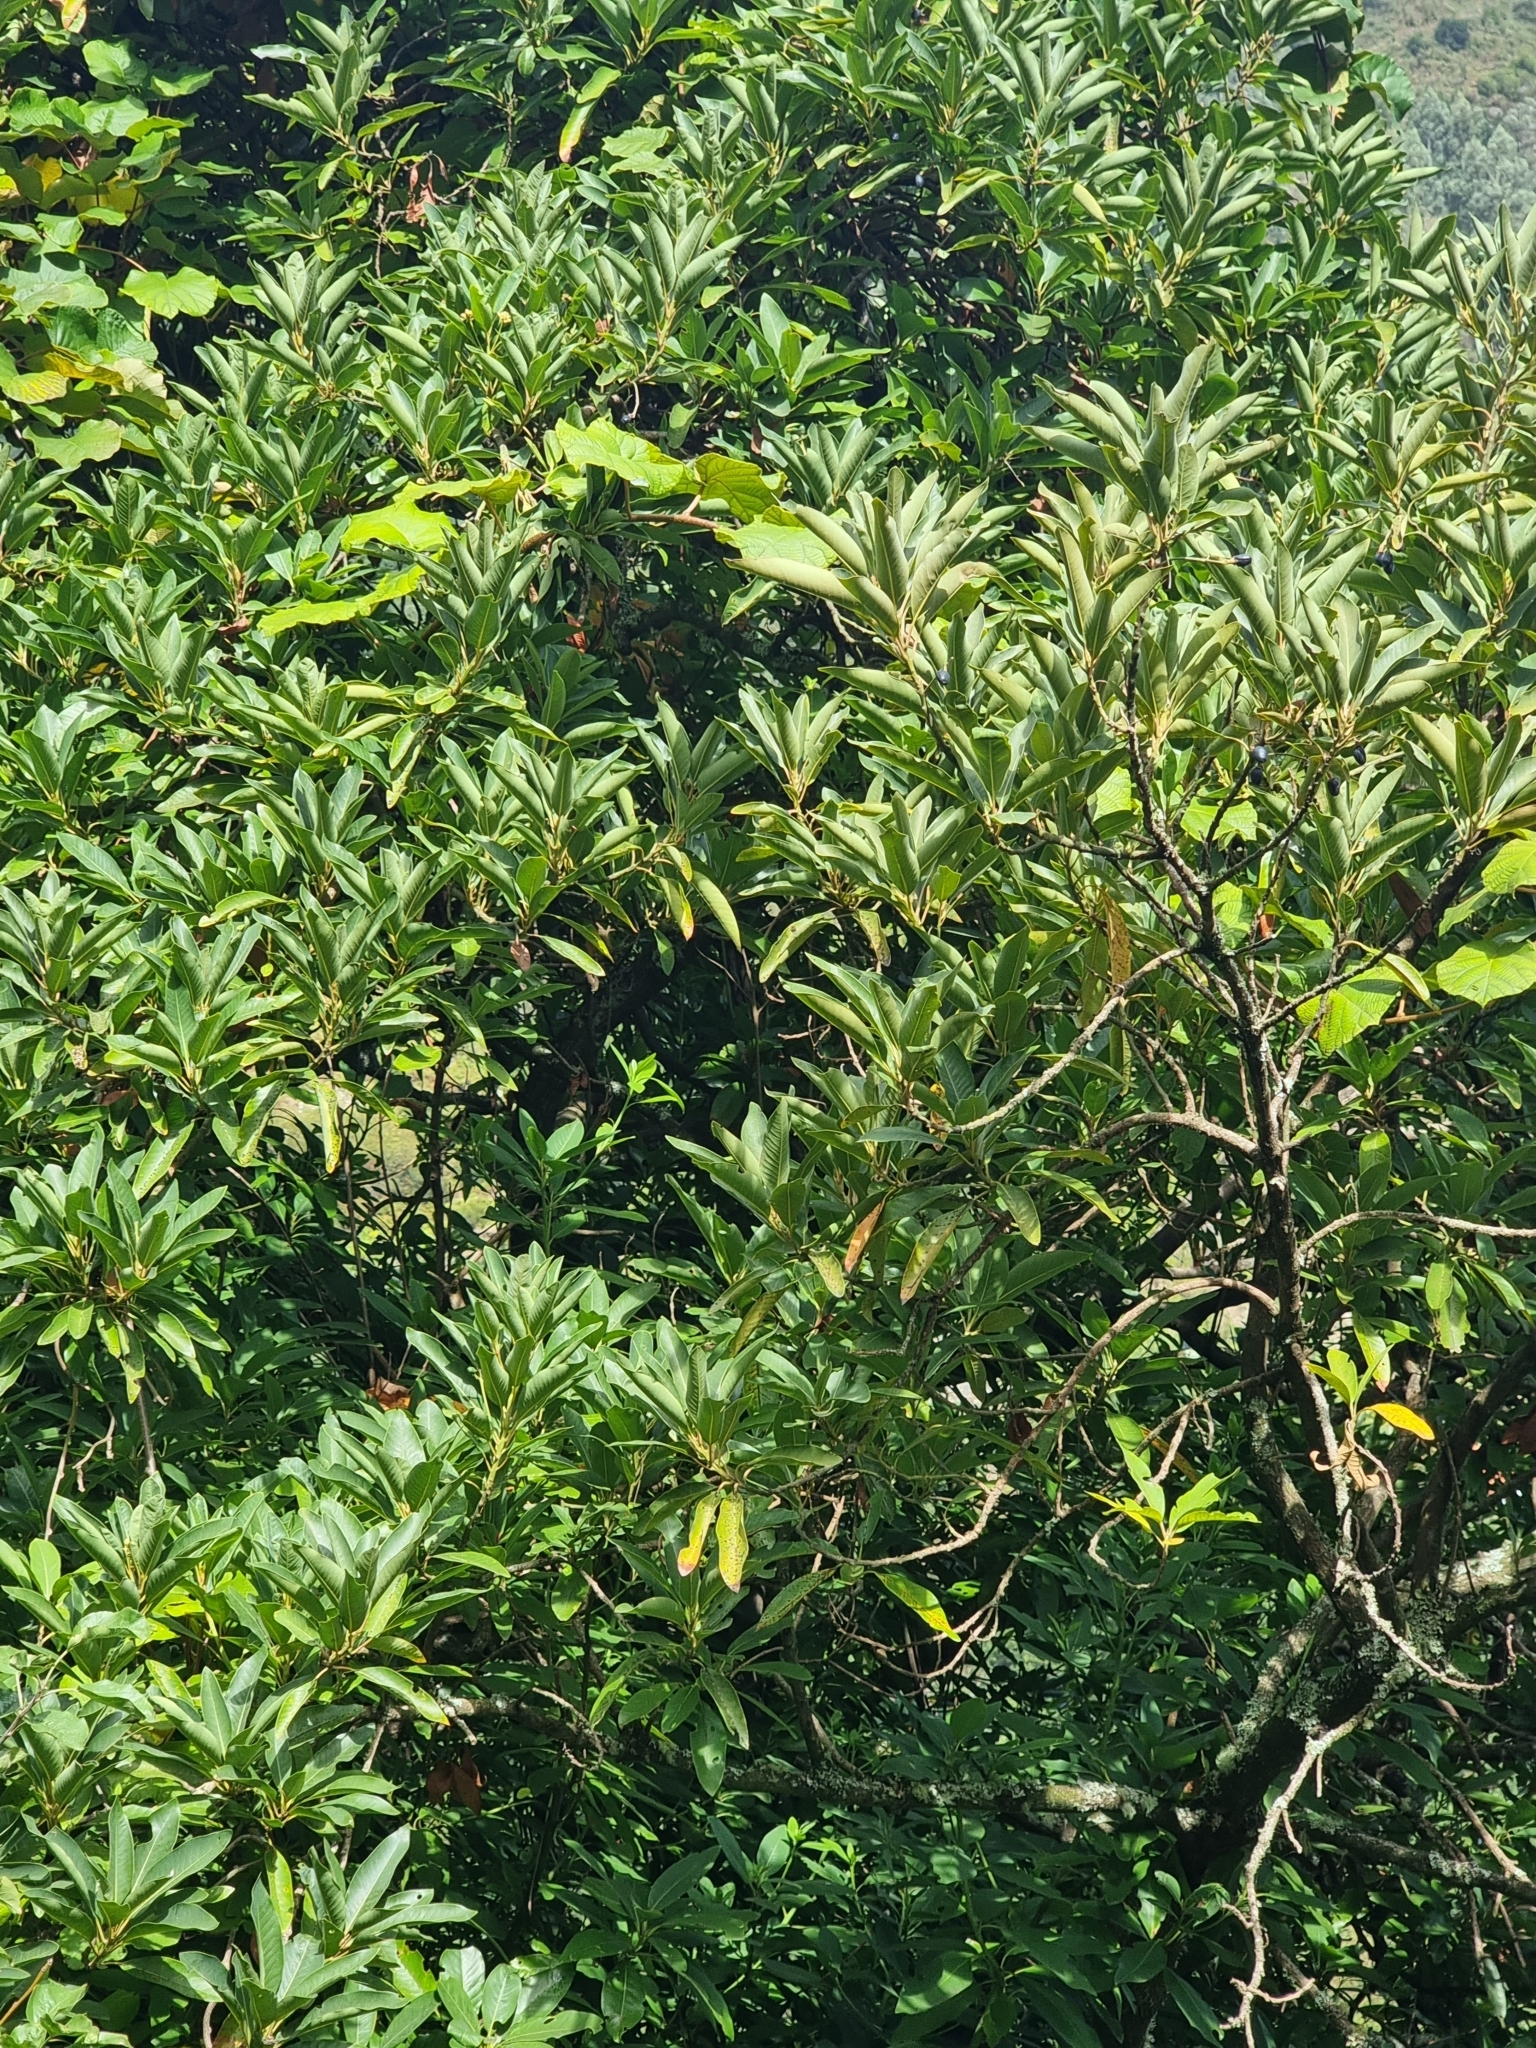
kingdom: Plantae
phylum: Tracheophyta
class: Magnoliopsida
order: Laurales
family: Lauraceae
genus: Persea
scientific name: Persea indica
